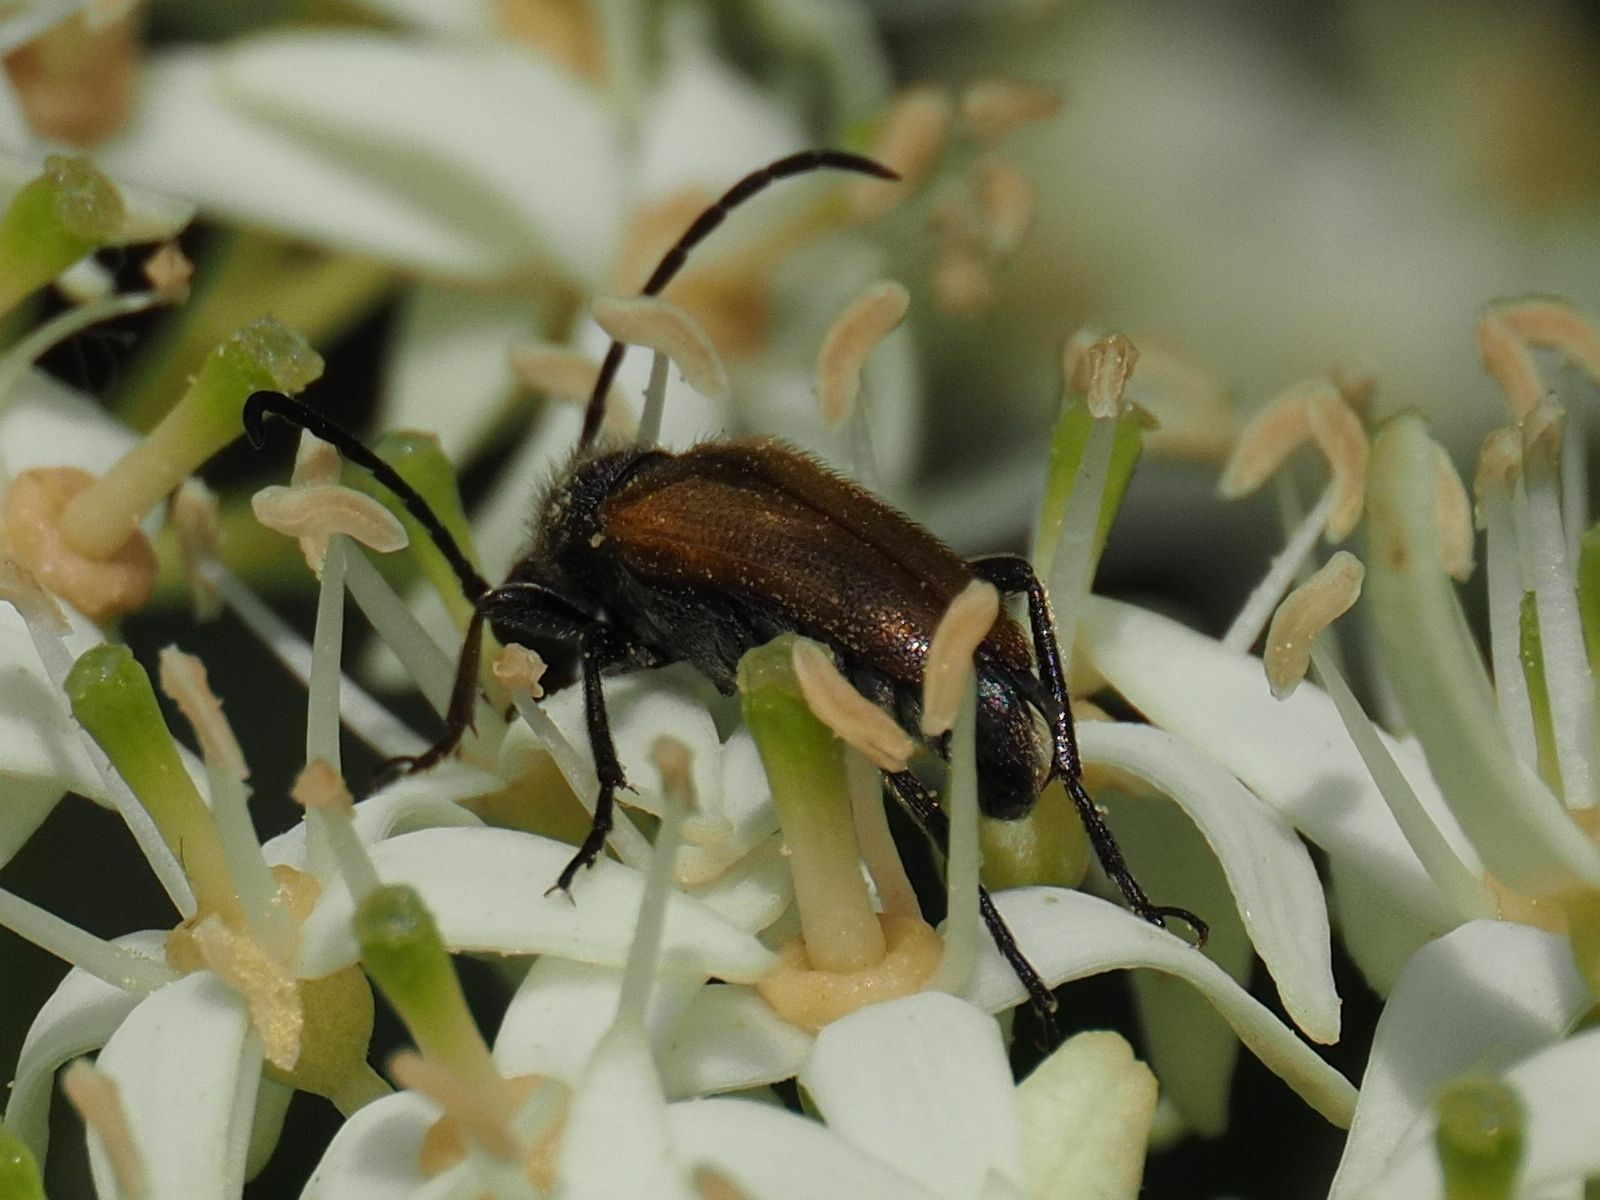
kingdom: Animalia
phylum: Arthropoda
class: Insecta
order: Coleoptera
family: Cerambycidae
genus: Pseudovadonia
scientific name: Pseudovadonia livida
